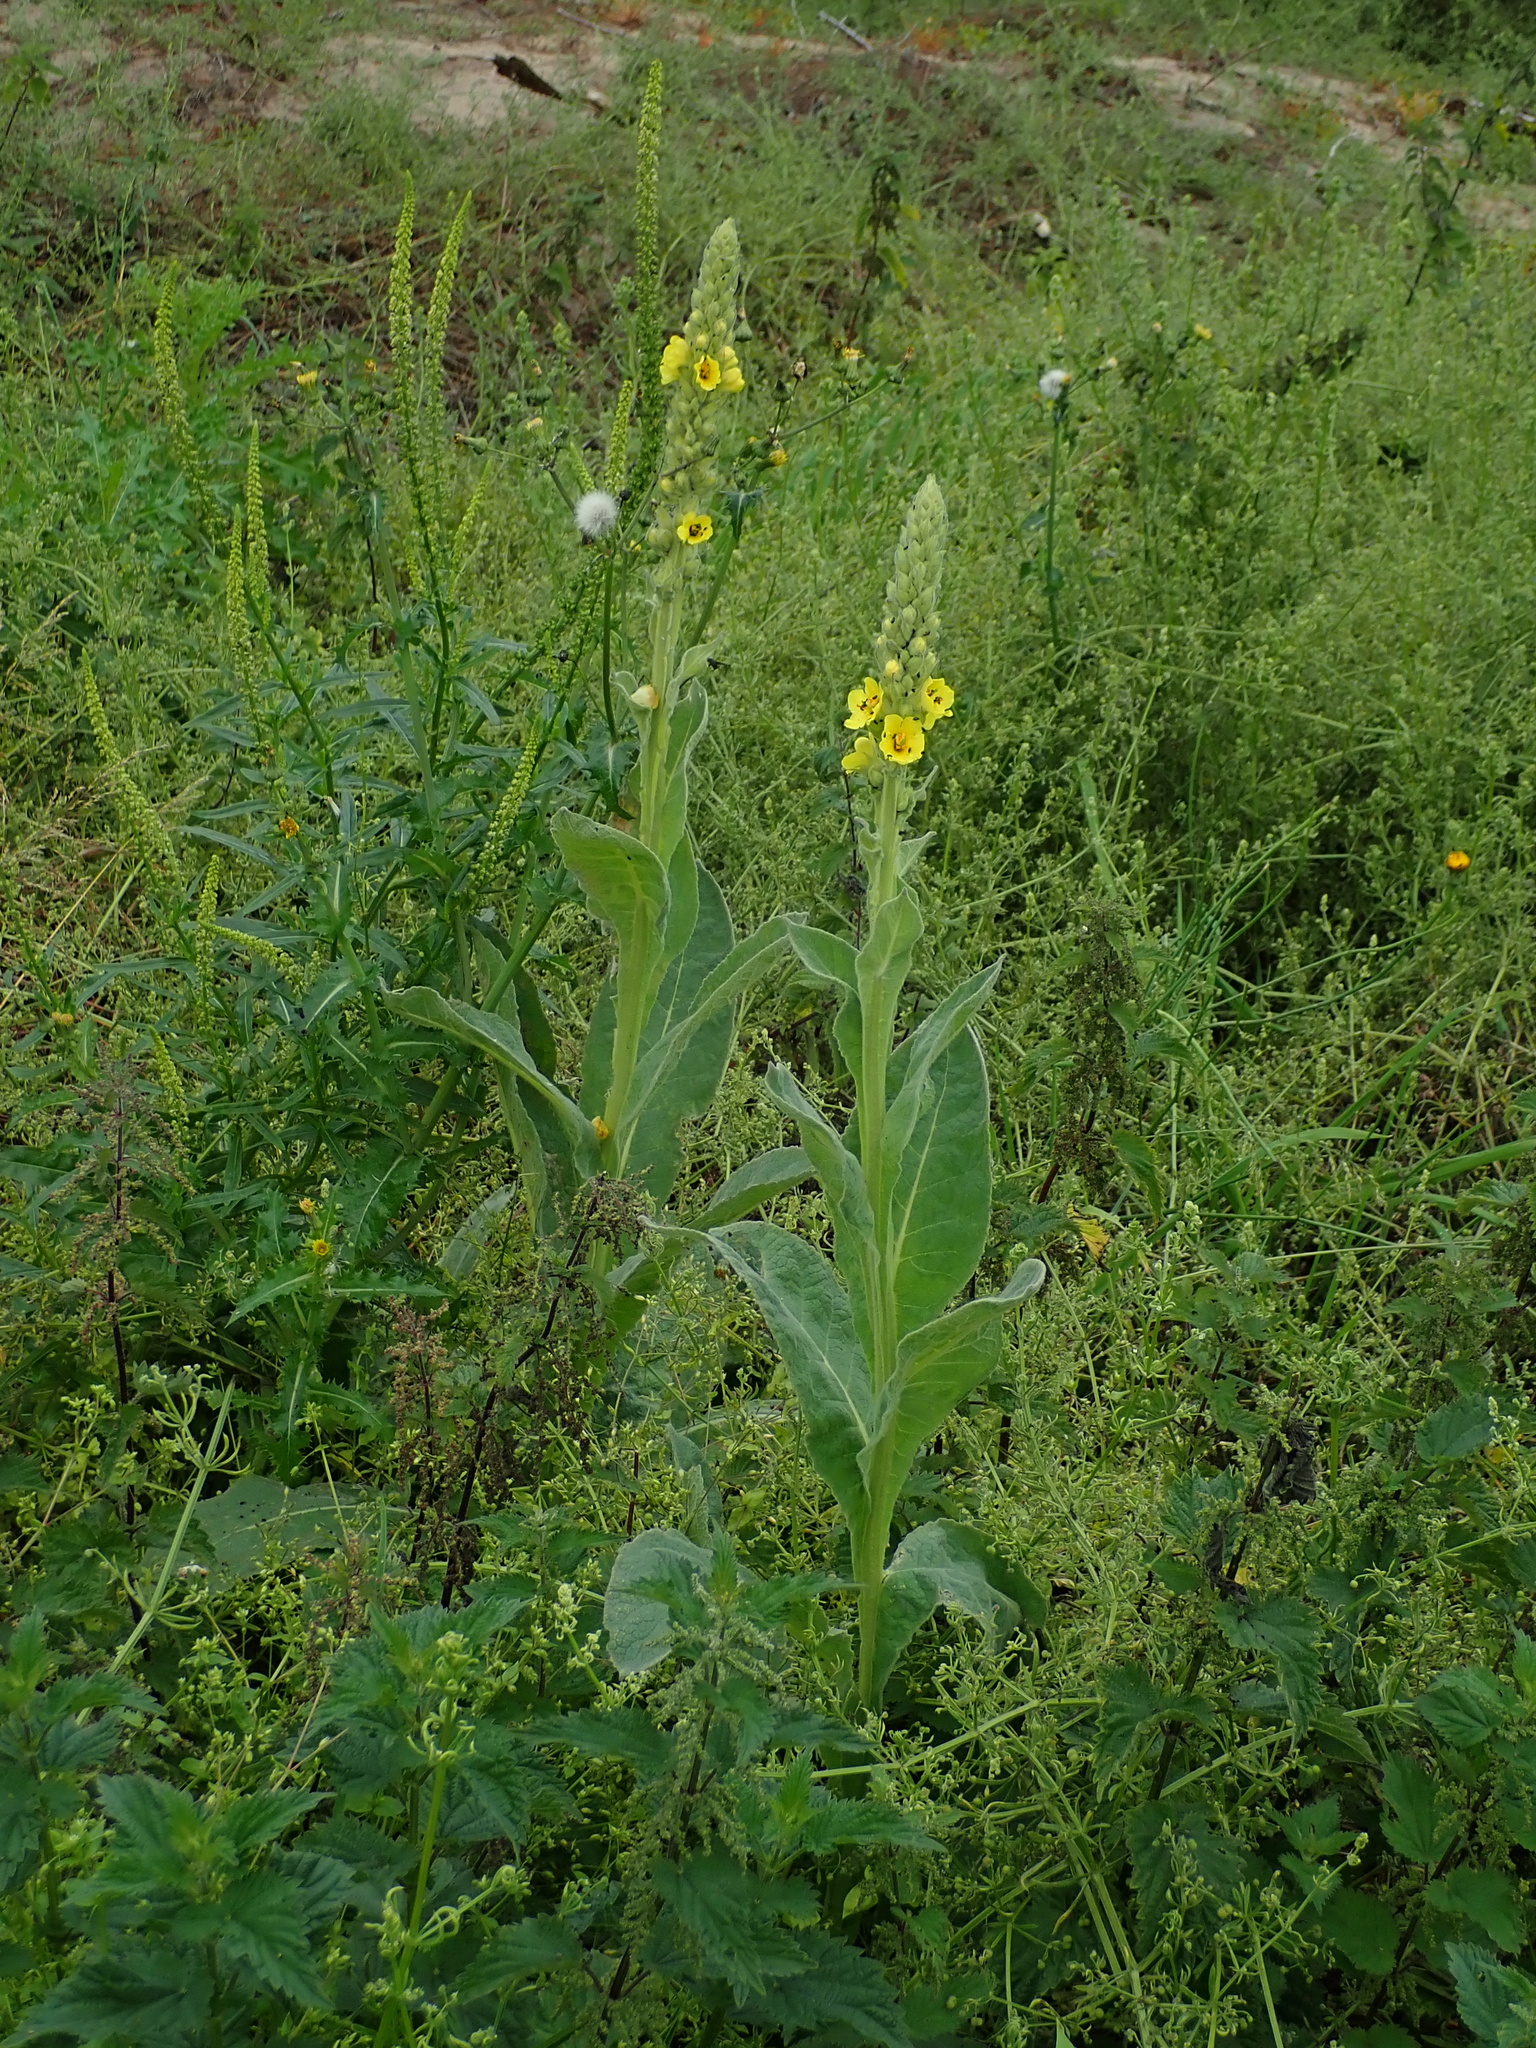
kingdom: Plantae
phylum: Tracheophyta
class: Magnoliopsida
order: Lamiales
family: Scrophulariaceae
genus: Verbascum
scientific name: Verbascum thapsus
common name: Common mullein
